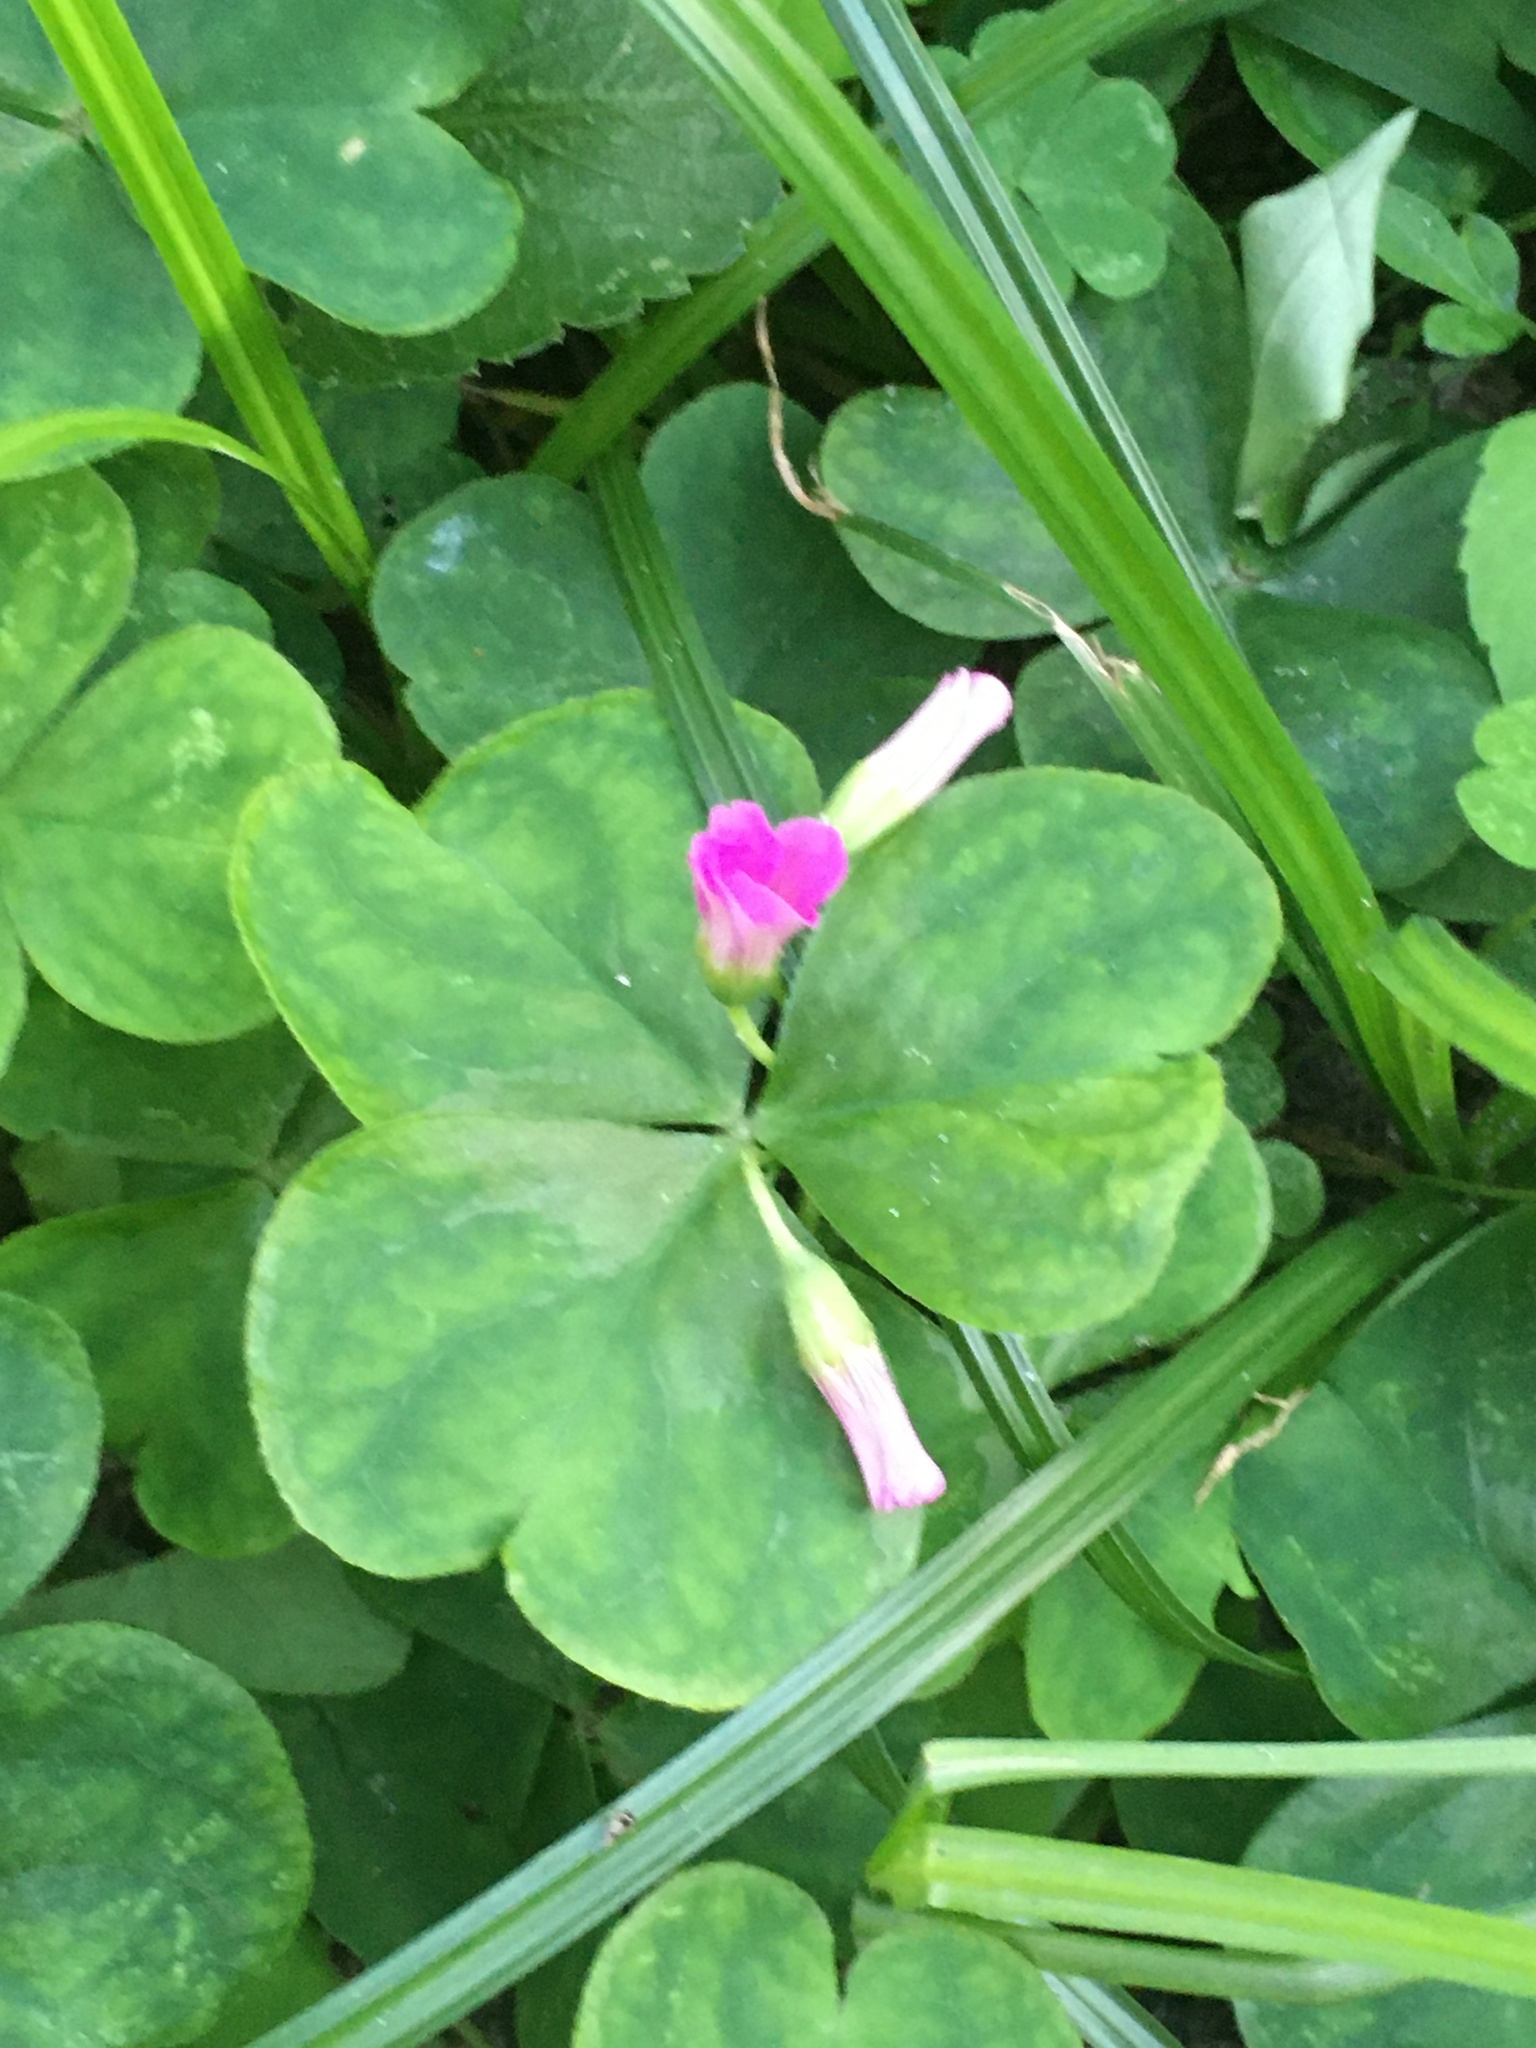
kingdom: Plantae
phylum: Tracheophyta
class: Magnoliopsida
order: Oxalidales
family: Oxalidaceae
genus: Oxalis
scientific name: Oxalis debilis
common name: Large-flowered pink-sorrel
